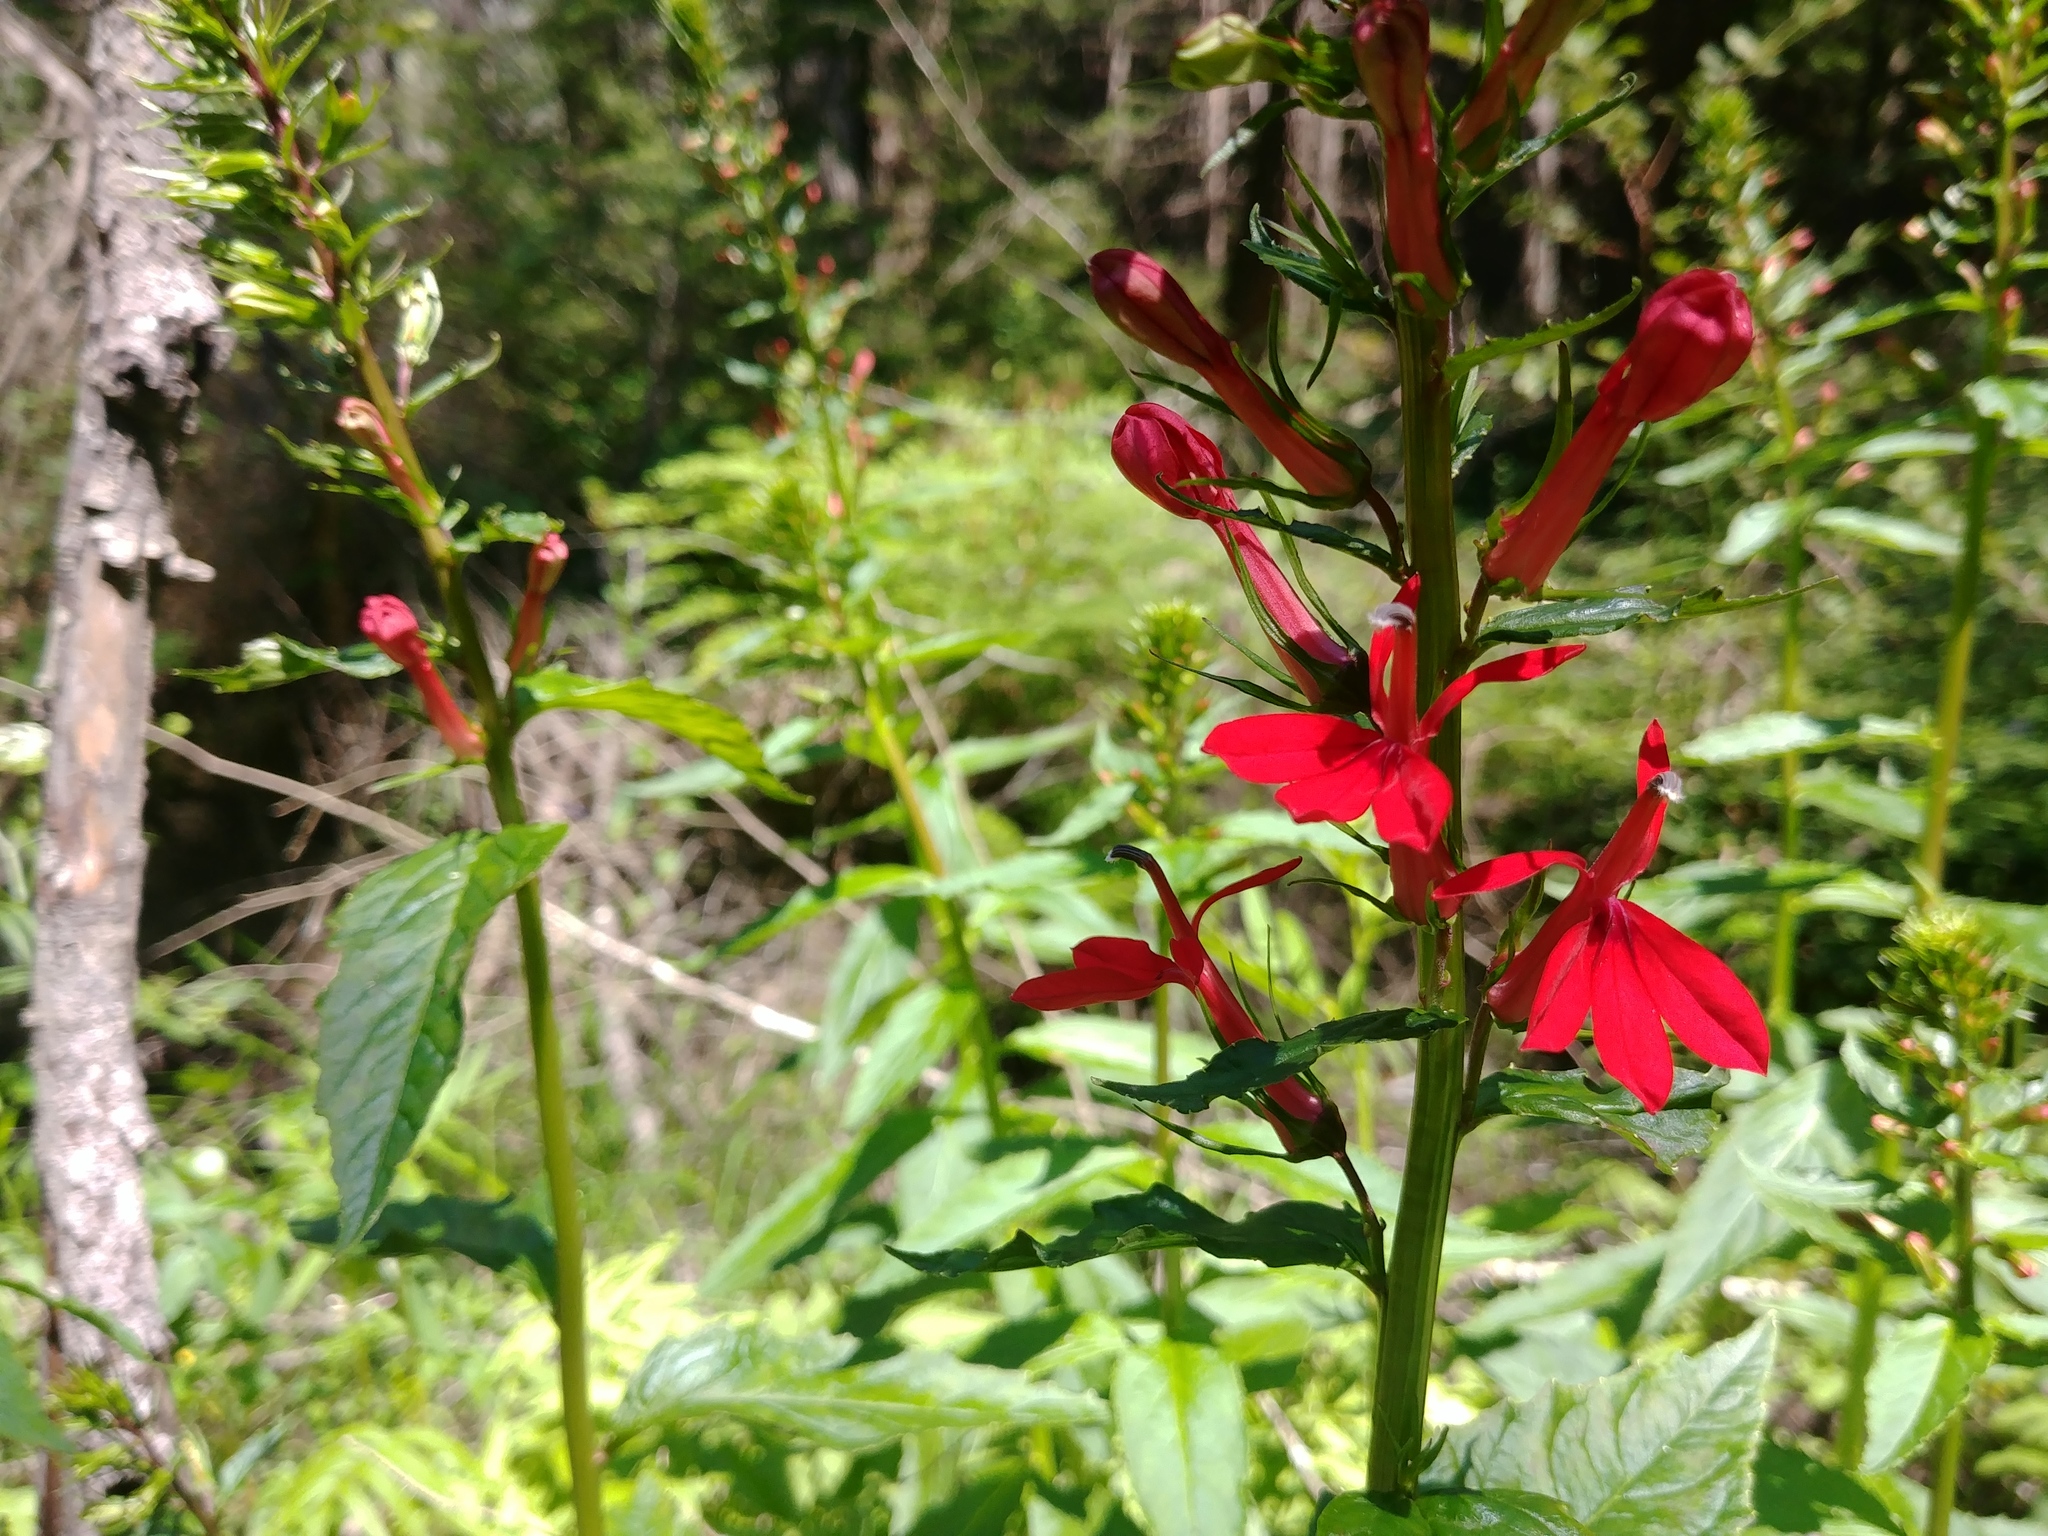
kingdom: Plantae
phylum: Tracheophyta
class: Magnoliopsida
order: Asterales
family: Campanulaceae
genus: Lobelia
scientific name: Lobelia cardinalis
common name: Cardinal flower
